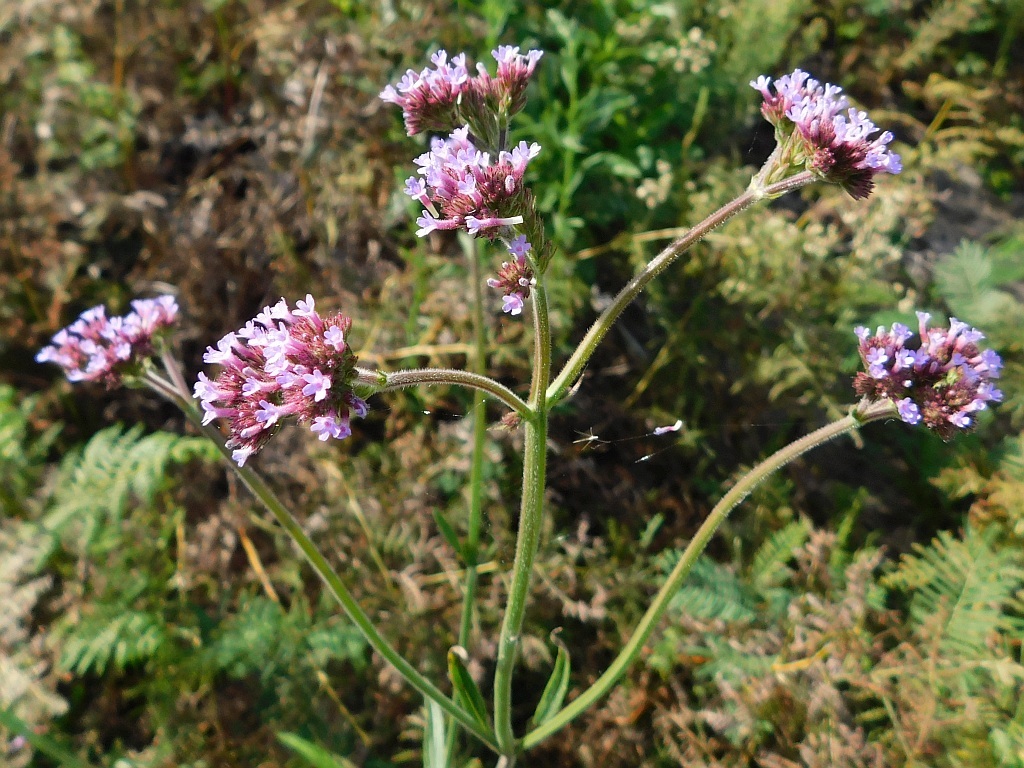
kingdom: Plantae
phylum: Tracheophyta
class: Magnoliopsida
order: Lamiales
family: Verbenaceae
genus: Verbena
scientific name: Verbena bonariensis
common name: Purpletop vervain
